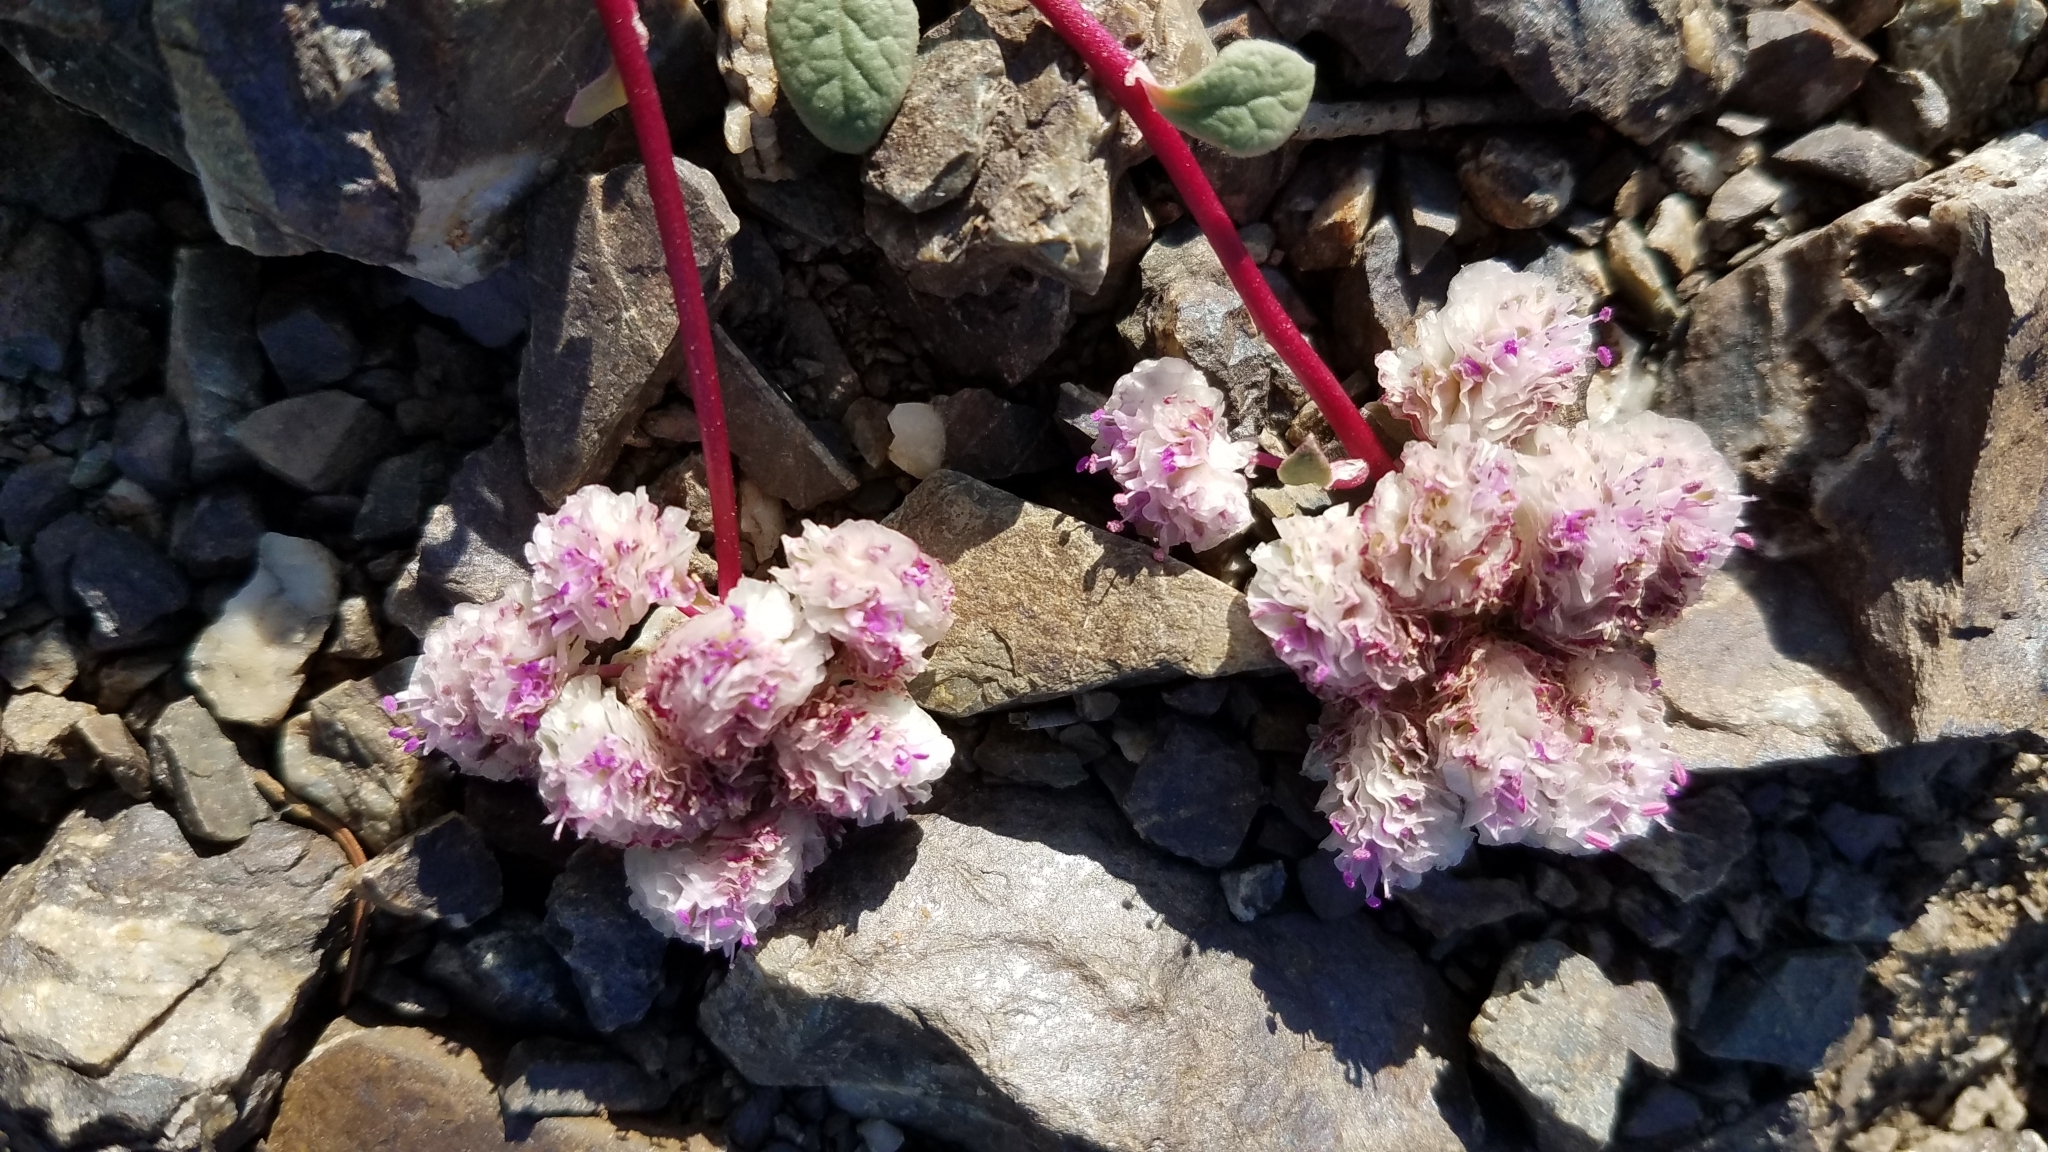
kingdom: Plantae
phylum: Tracheophyta
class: Magnoliopsida
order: Caryophyllales
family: Montiaceae
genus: Calyptridium
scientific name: Calyptridium monospermum
